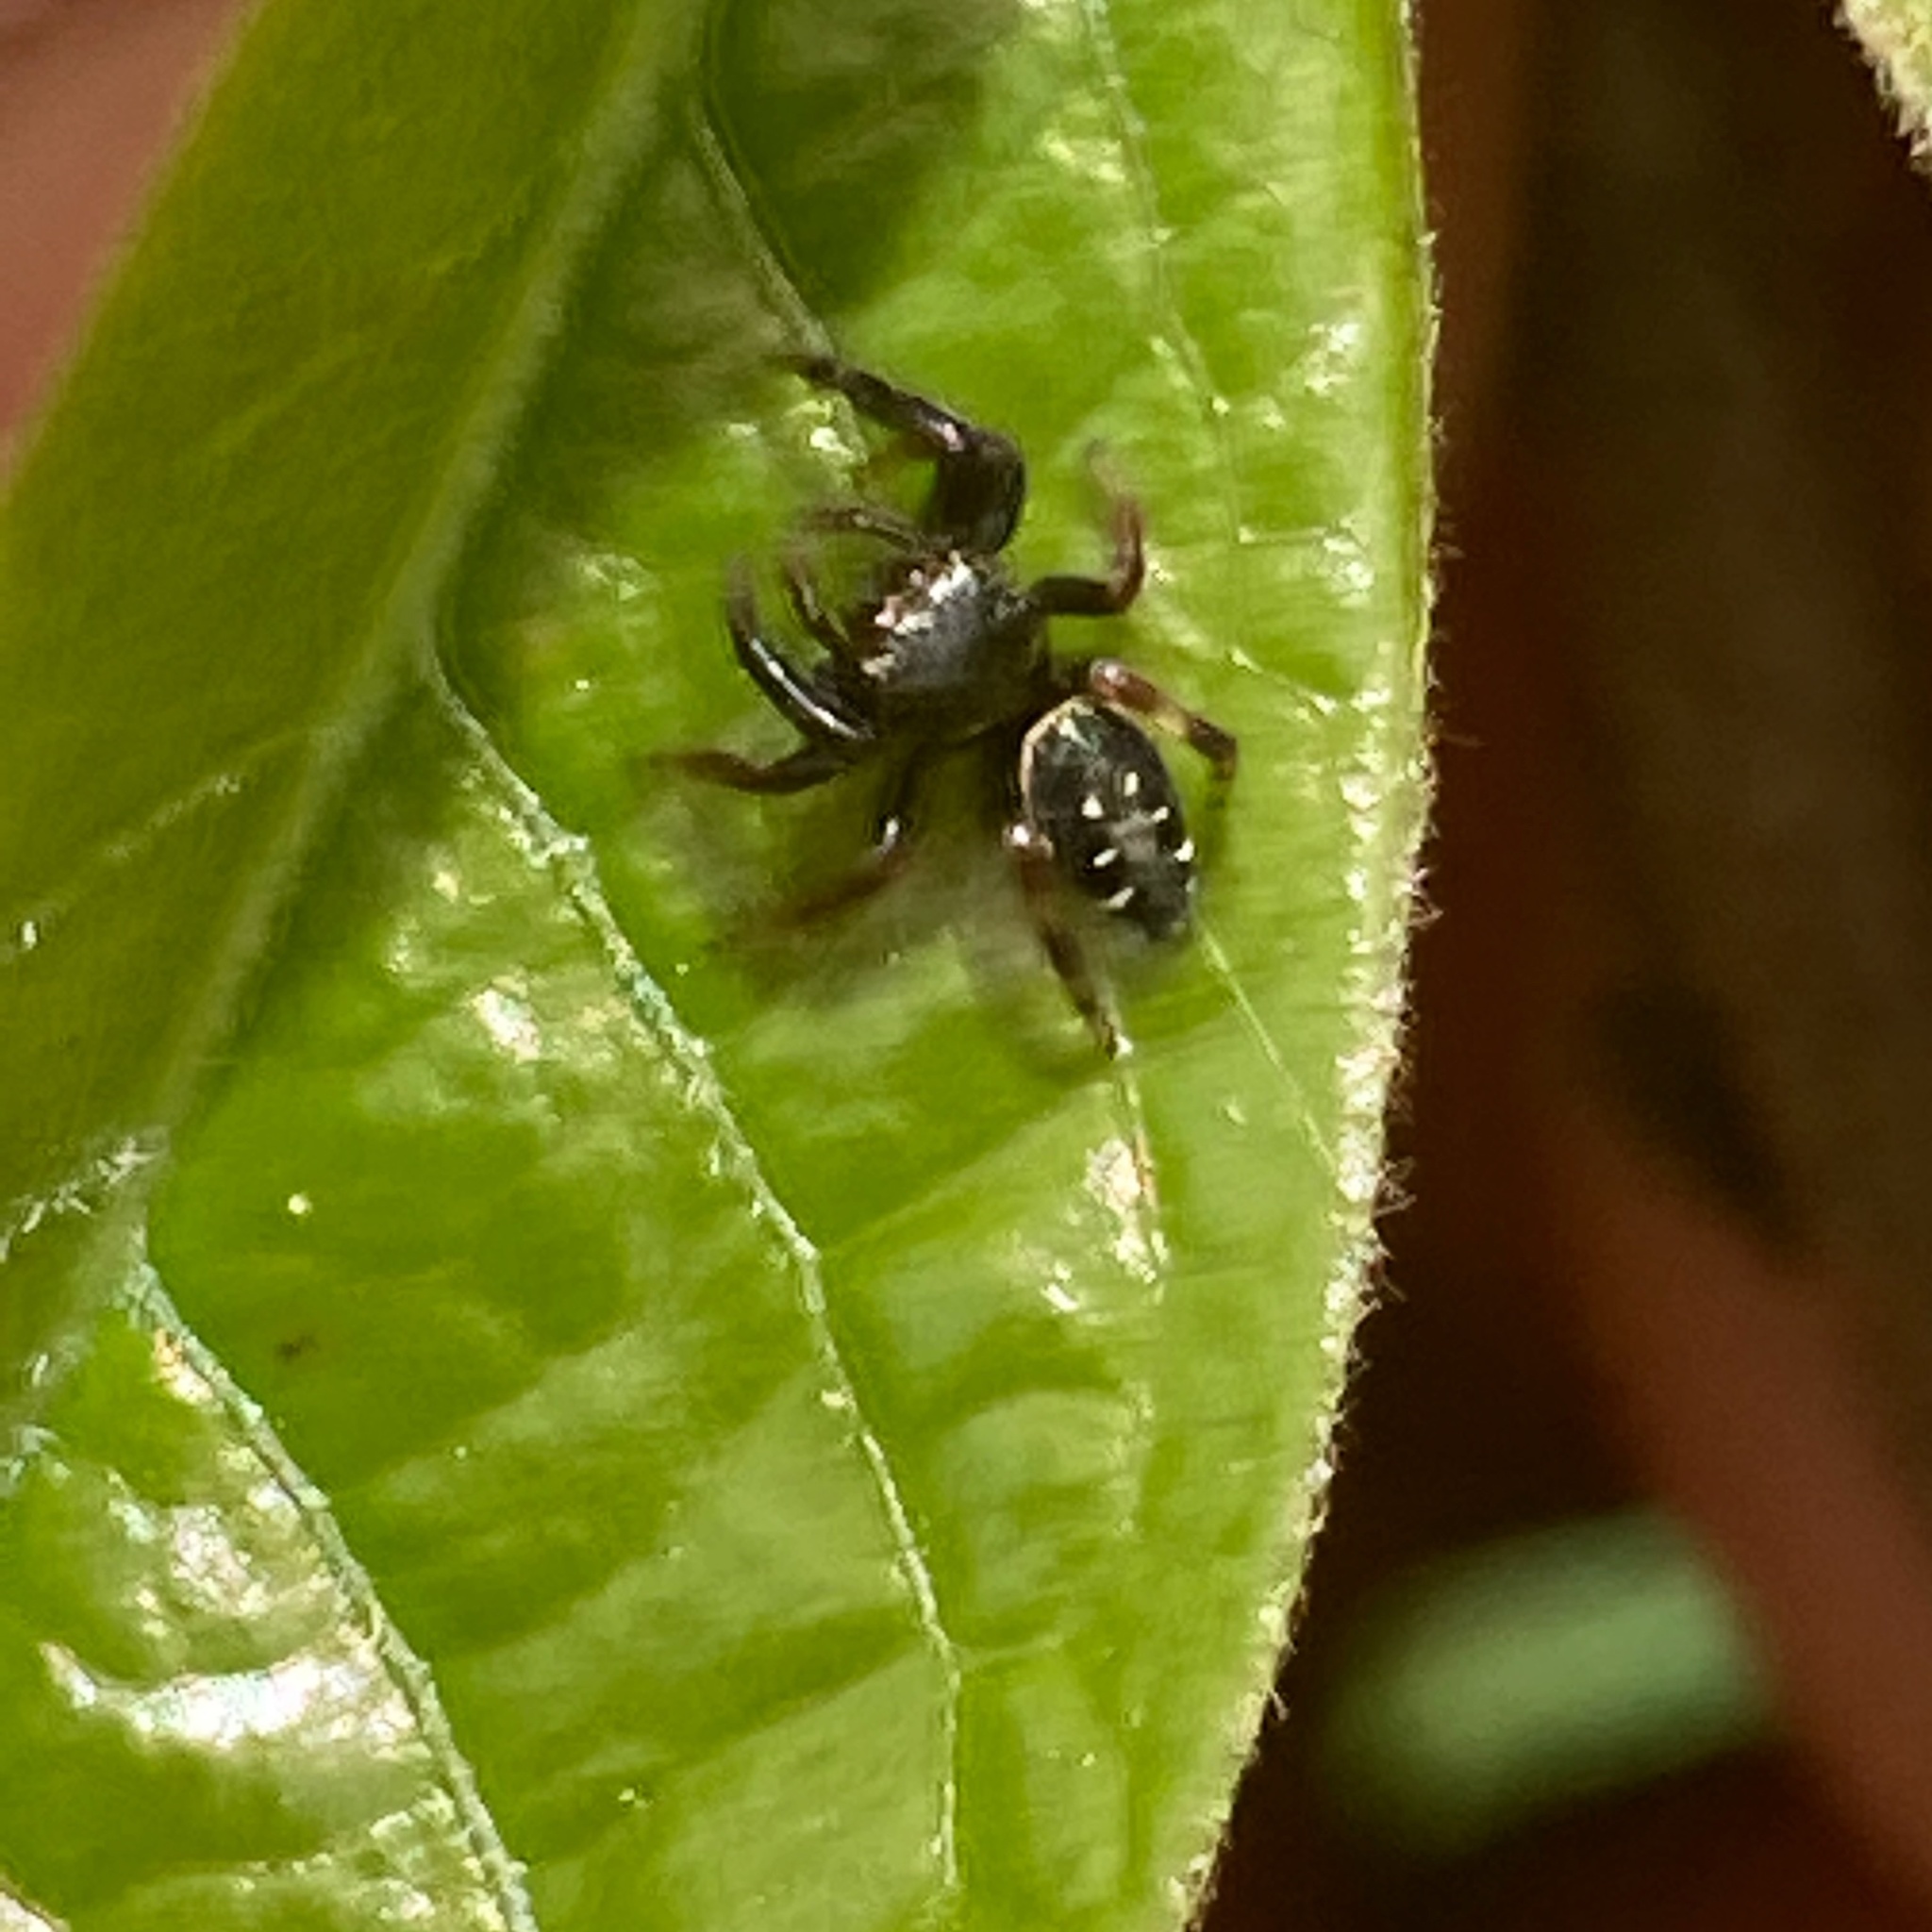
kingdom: Animalia
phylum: Arthropoda
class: Arachnida
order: Araneae
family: Salticidae
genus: Paraphidippus
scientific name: Paraphidippus aurantius
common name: Jumping spiders
